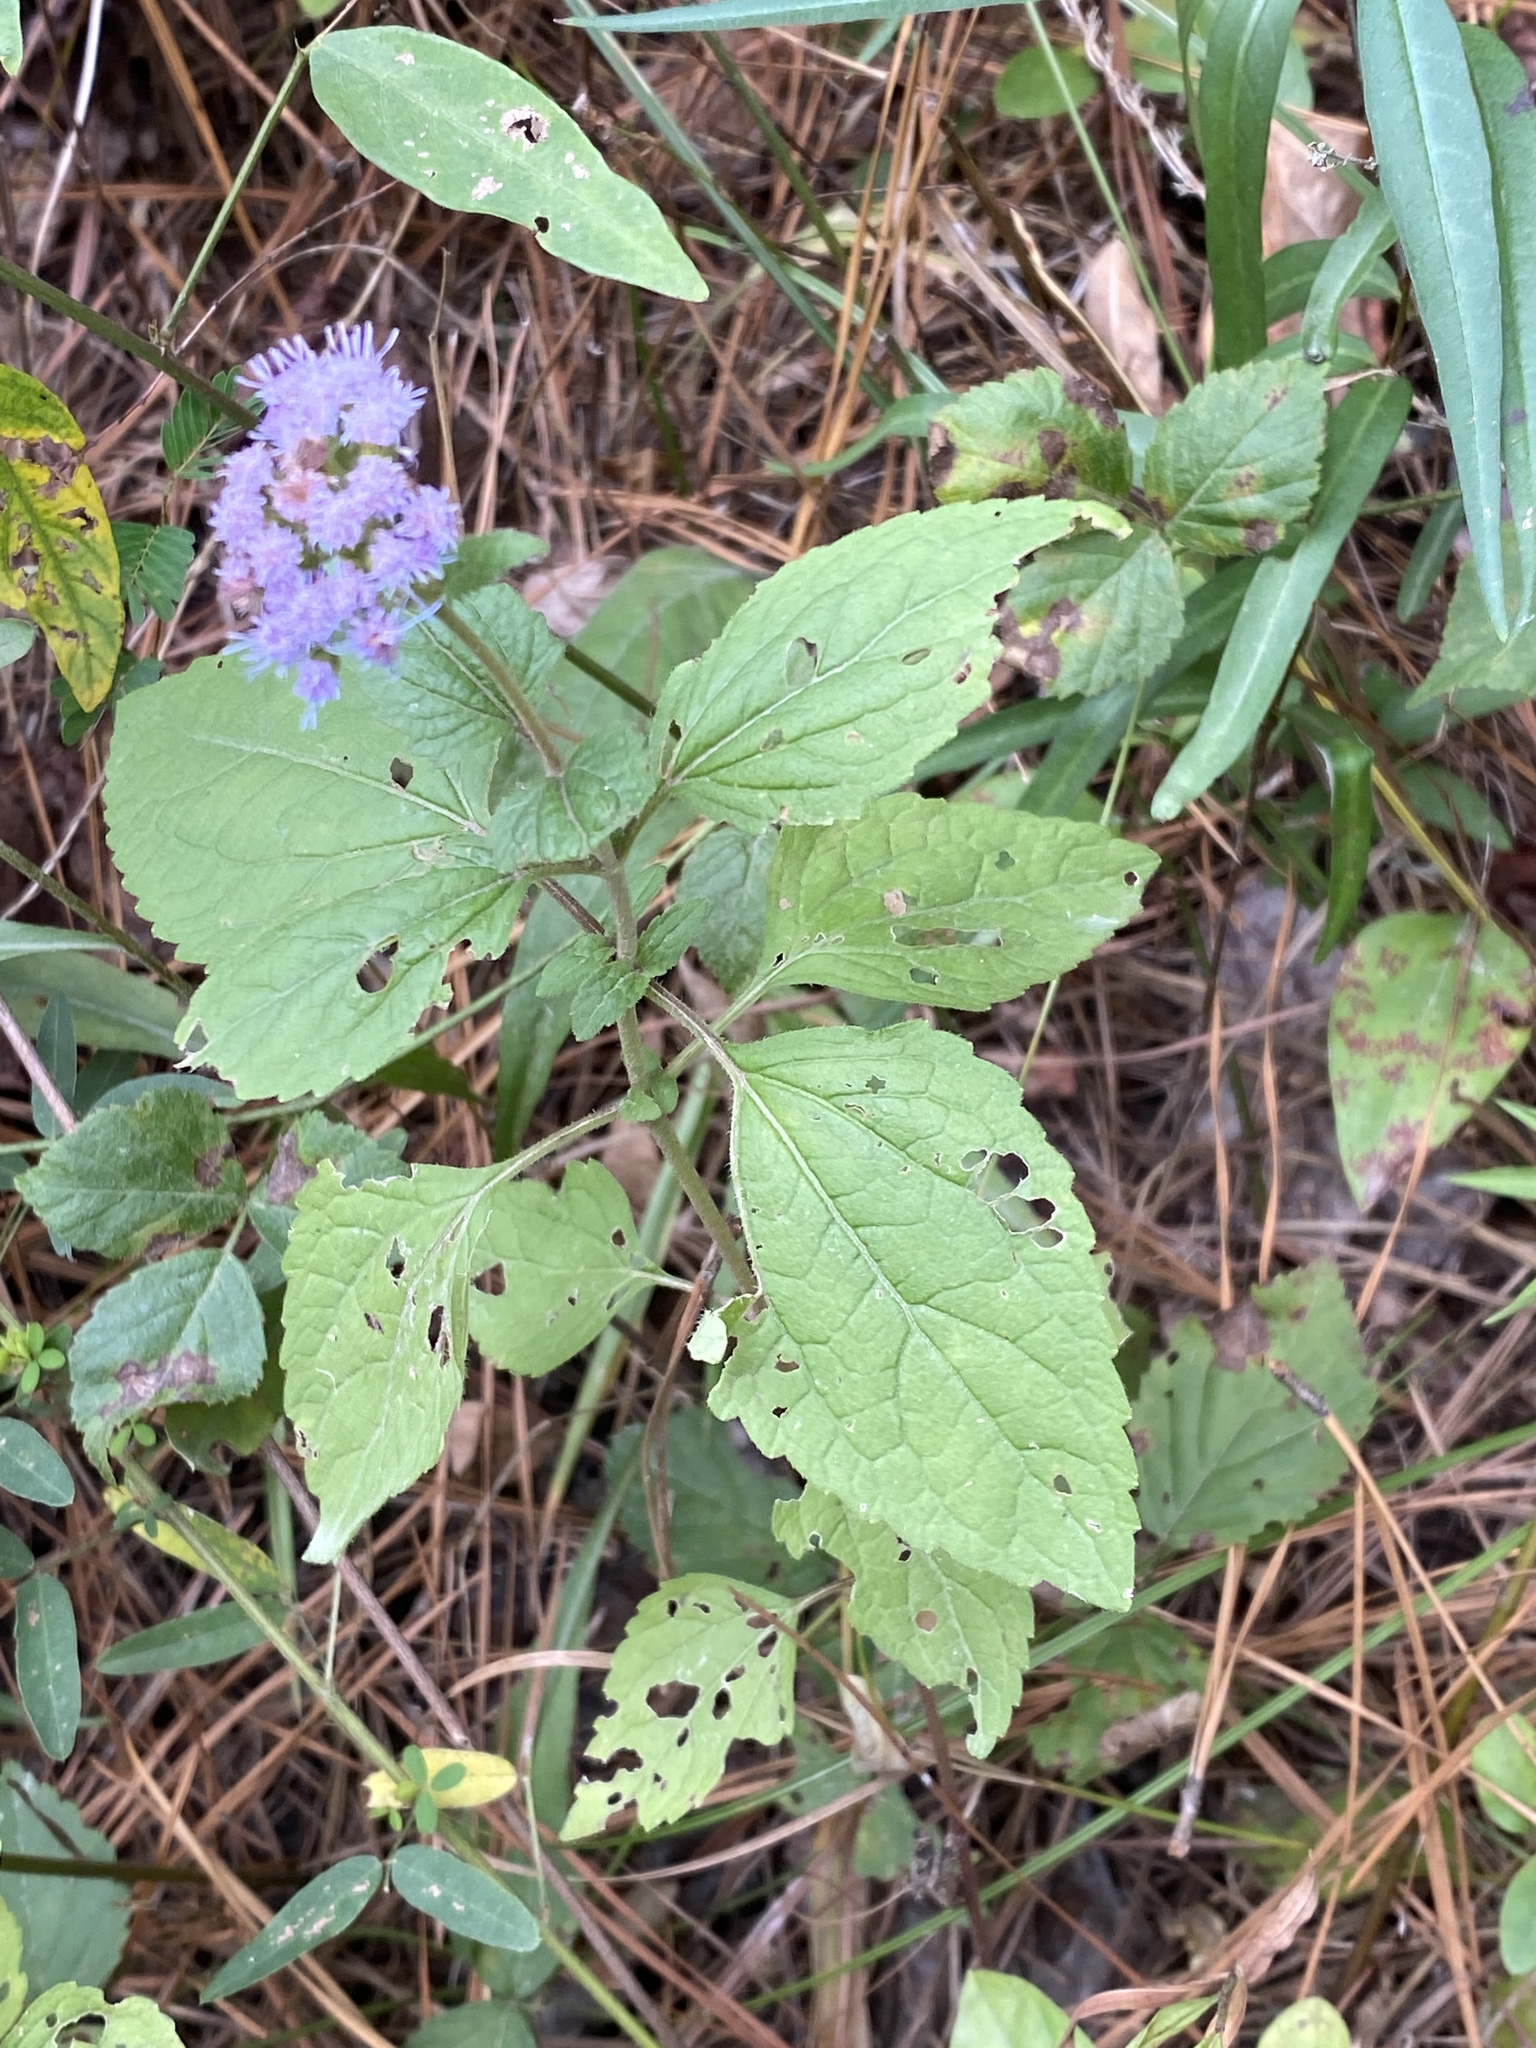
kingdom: Plantae
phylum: Tracheophyta
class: Magnoliopsida
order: Asterales
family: Asteraceae
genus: Conoclinium
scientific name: Conoclinium coelestinum
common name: Blue mistflower
